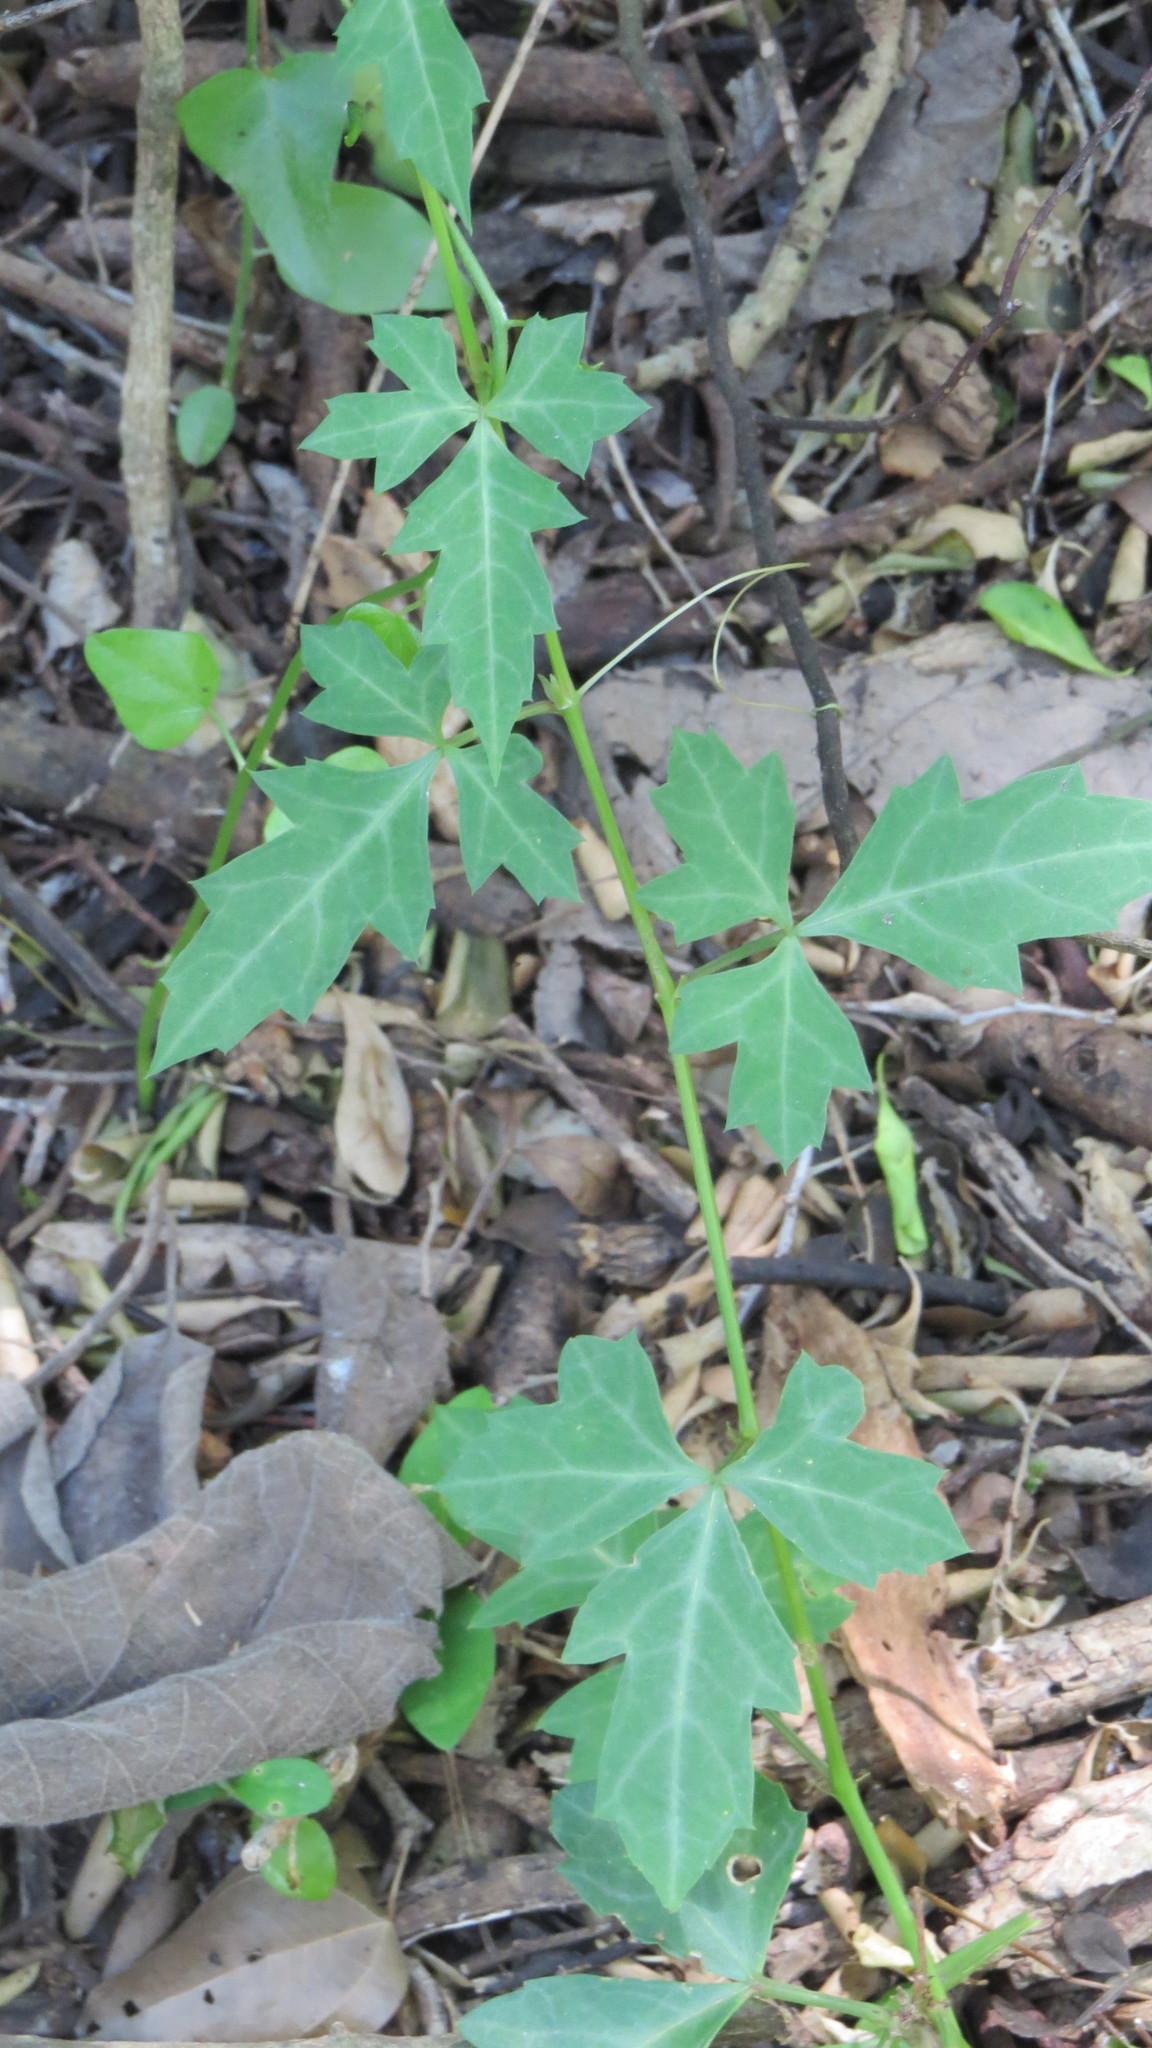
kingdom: Plantae
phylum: Tracheophyta
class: Magnoliopsida
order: Vitales
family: Vitaceae
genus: Cissus
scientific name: Cissus trifoliata
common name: Vine-sorrel
